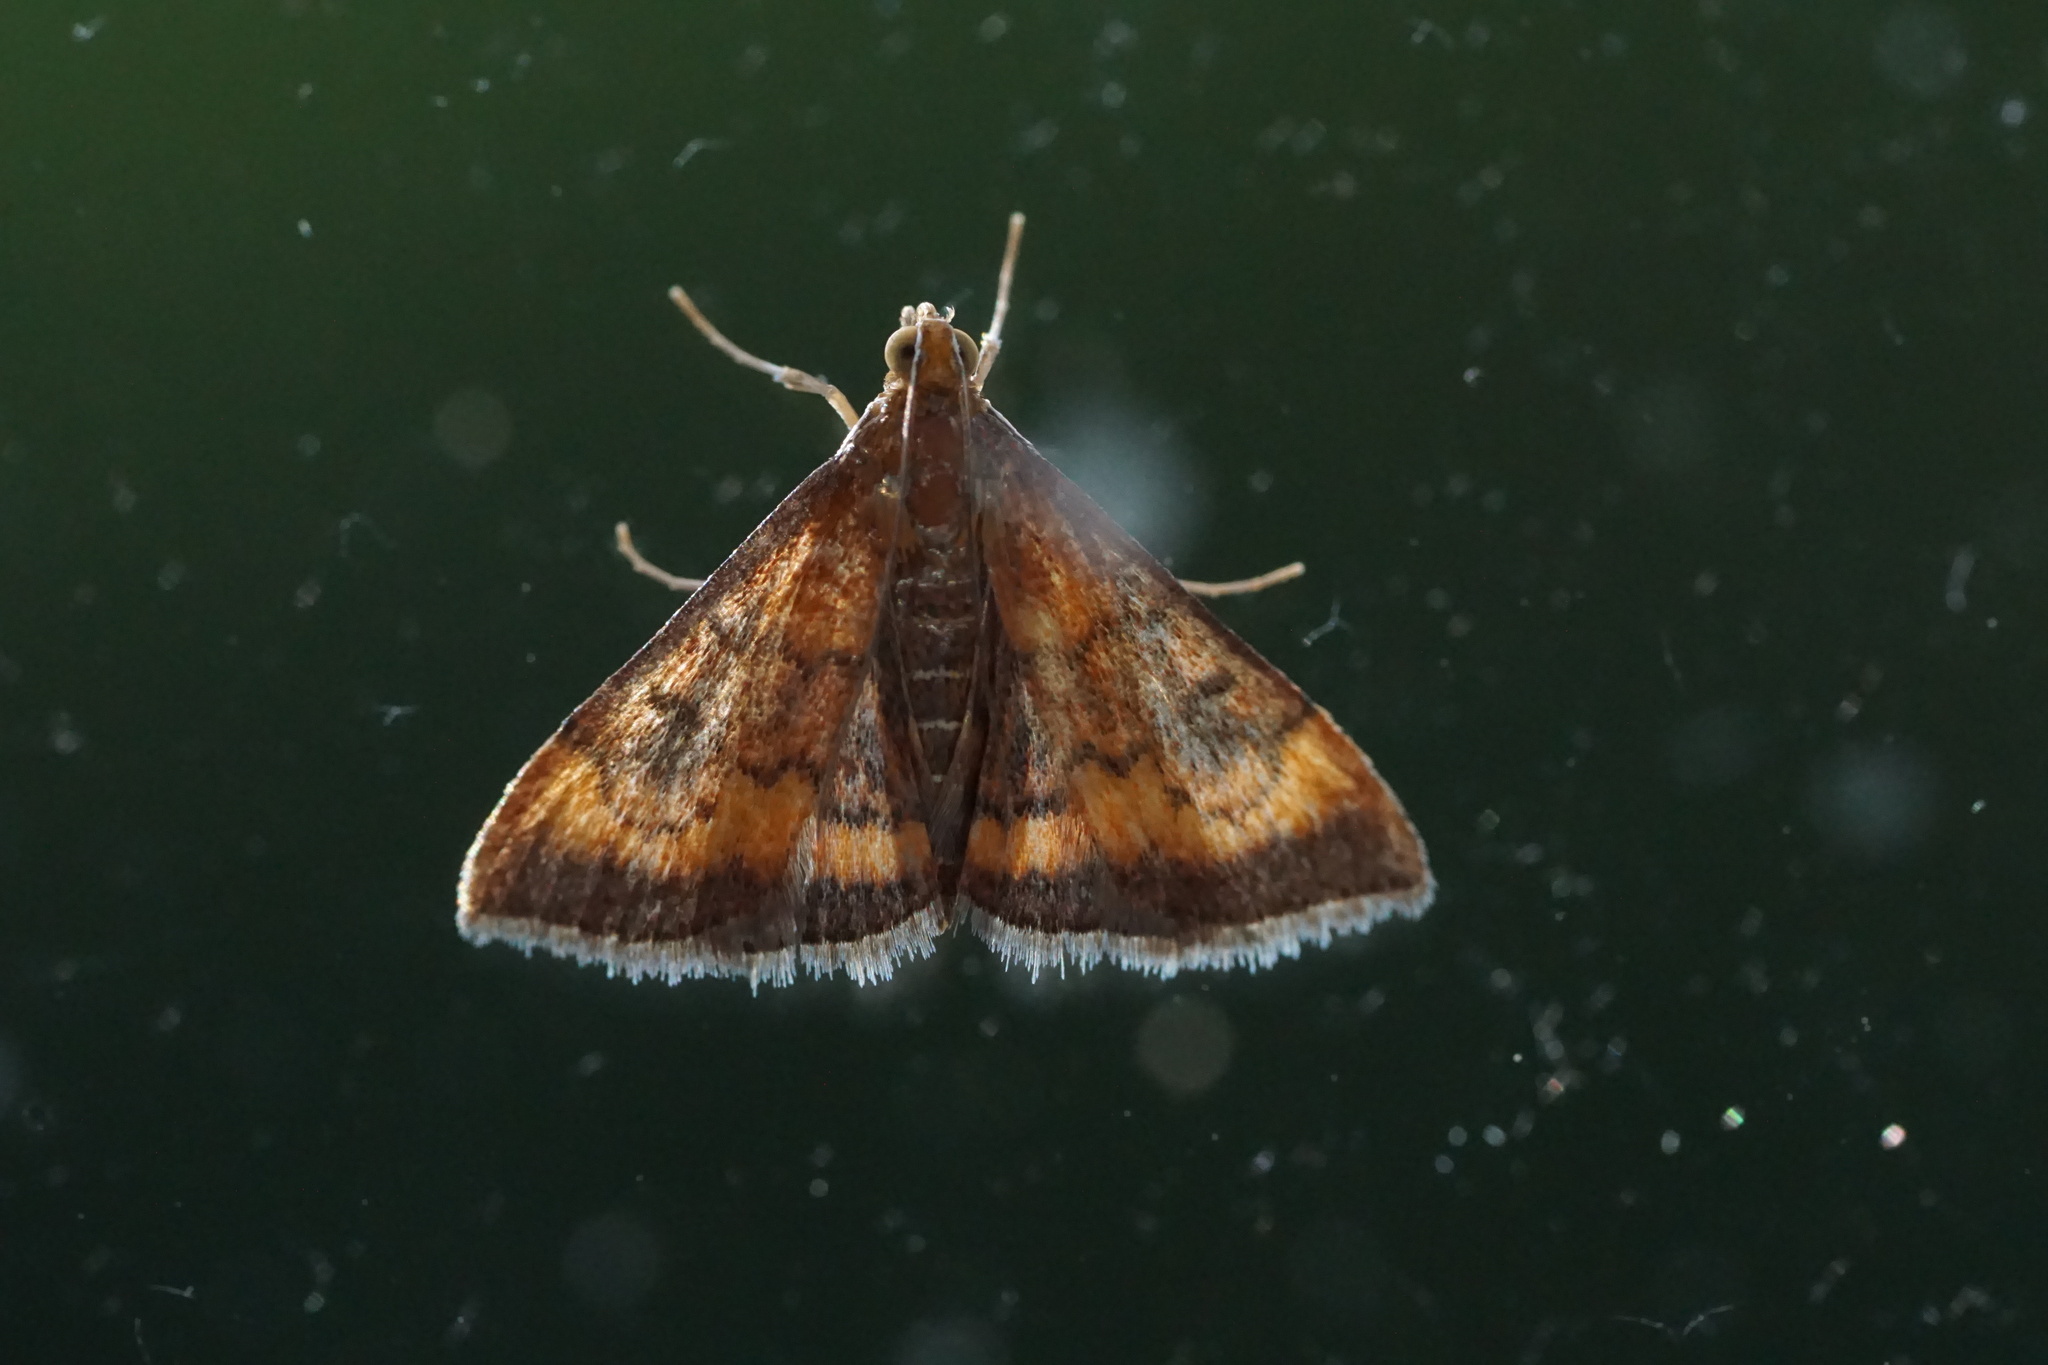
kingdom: Animalia
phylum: Arthropoda
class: Insecta
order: Lepidoptera
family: Crambidae
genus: Pyrausta
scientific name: Pyrausta rubricalis
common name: Variable reddish pyrausta
